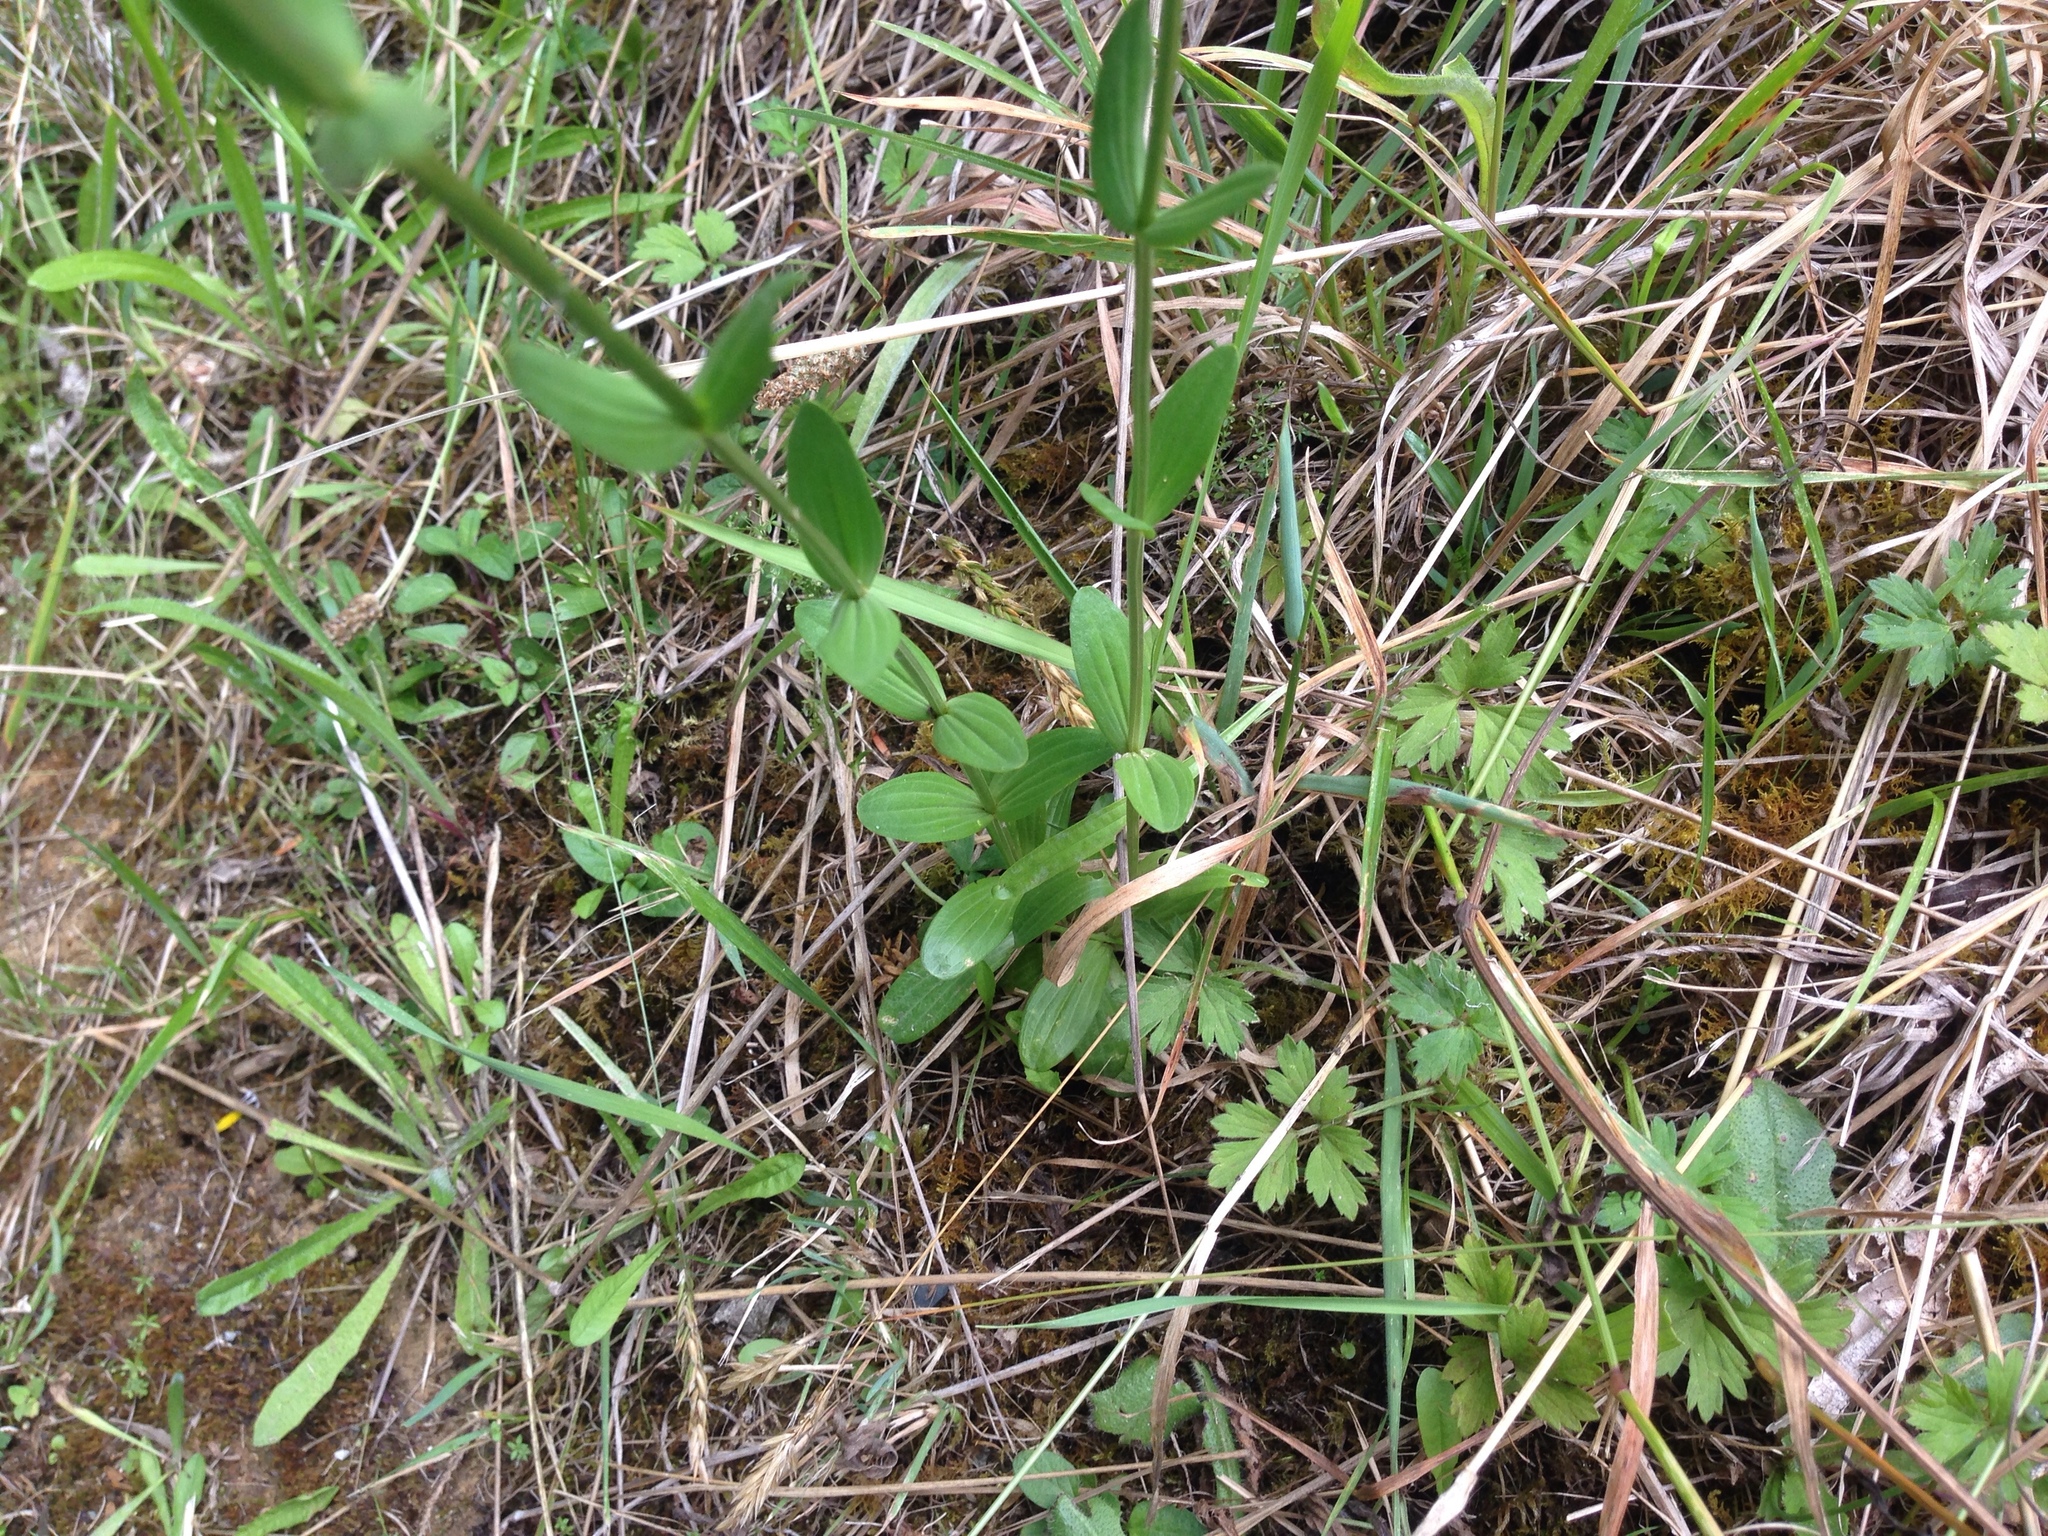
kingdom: Plantae
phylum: Tracheophyta
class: Magnoliopsida
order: Gentianales
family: Gentianaceae
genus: Centaurium
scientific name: Centaurium erythraea
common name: Common centaury
